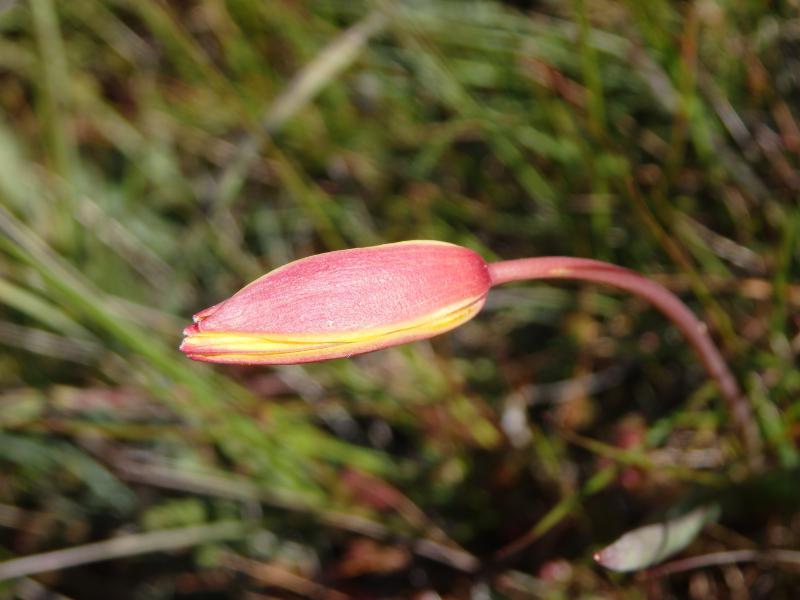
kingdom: Plantae
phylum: Tracheophyta
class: Liliopsida
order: Liliales
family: Liliaceae
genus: Tulipa
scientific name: Tulipa sylvestris
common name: Wild tulip
